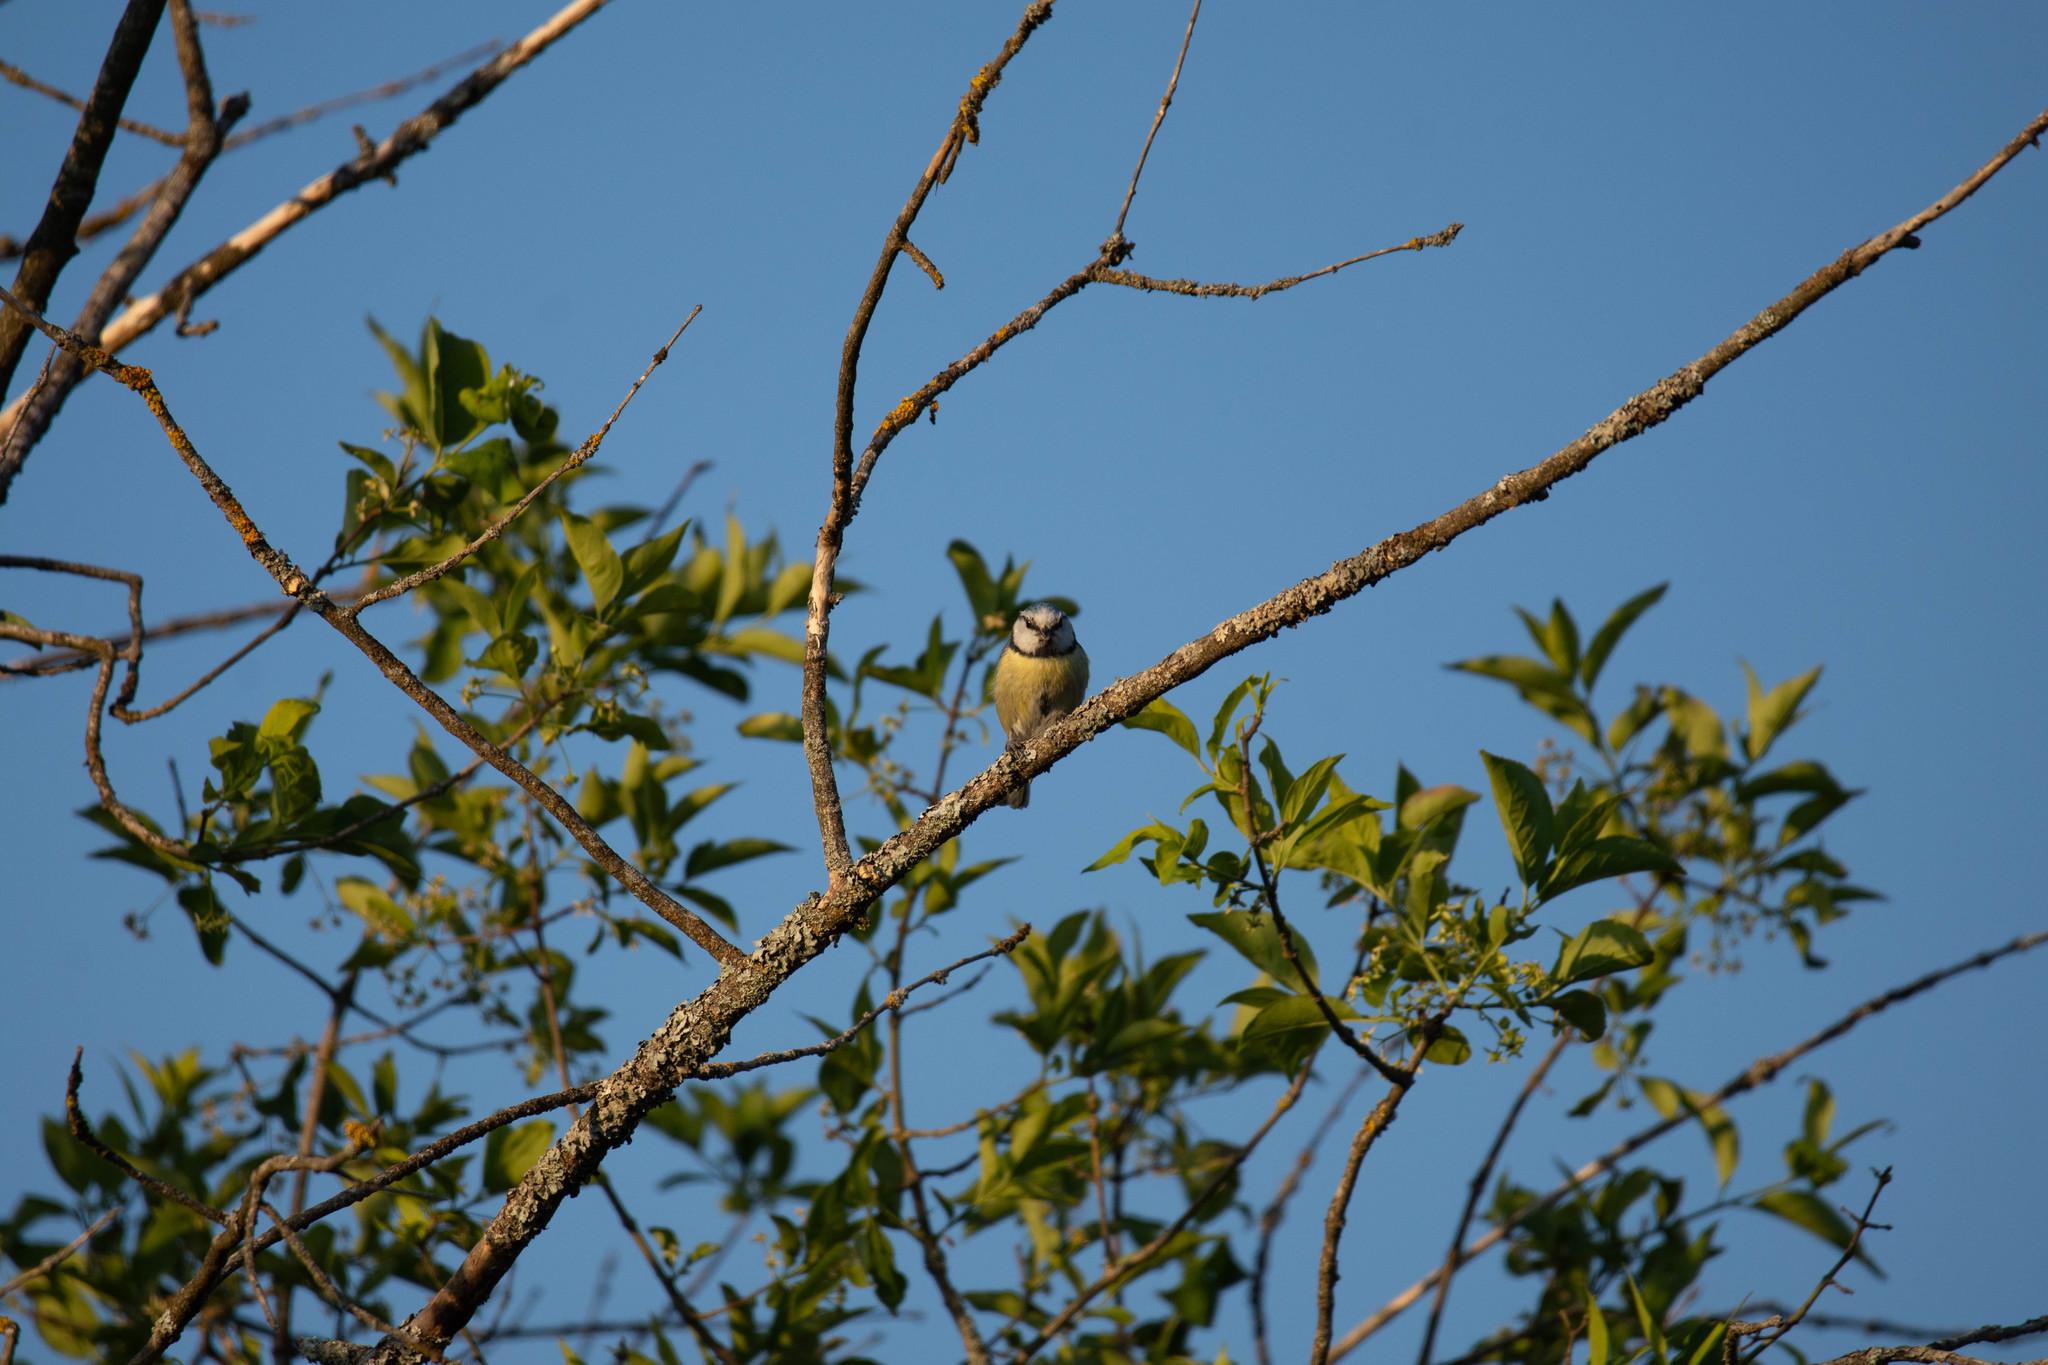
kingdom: Animalia
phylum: Chordata
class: Aves
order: Passeriformes
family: Paridae
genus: Cyanistes
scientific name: Cyanistes caeruleus
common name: Eurasian blue tit
